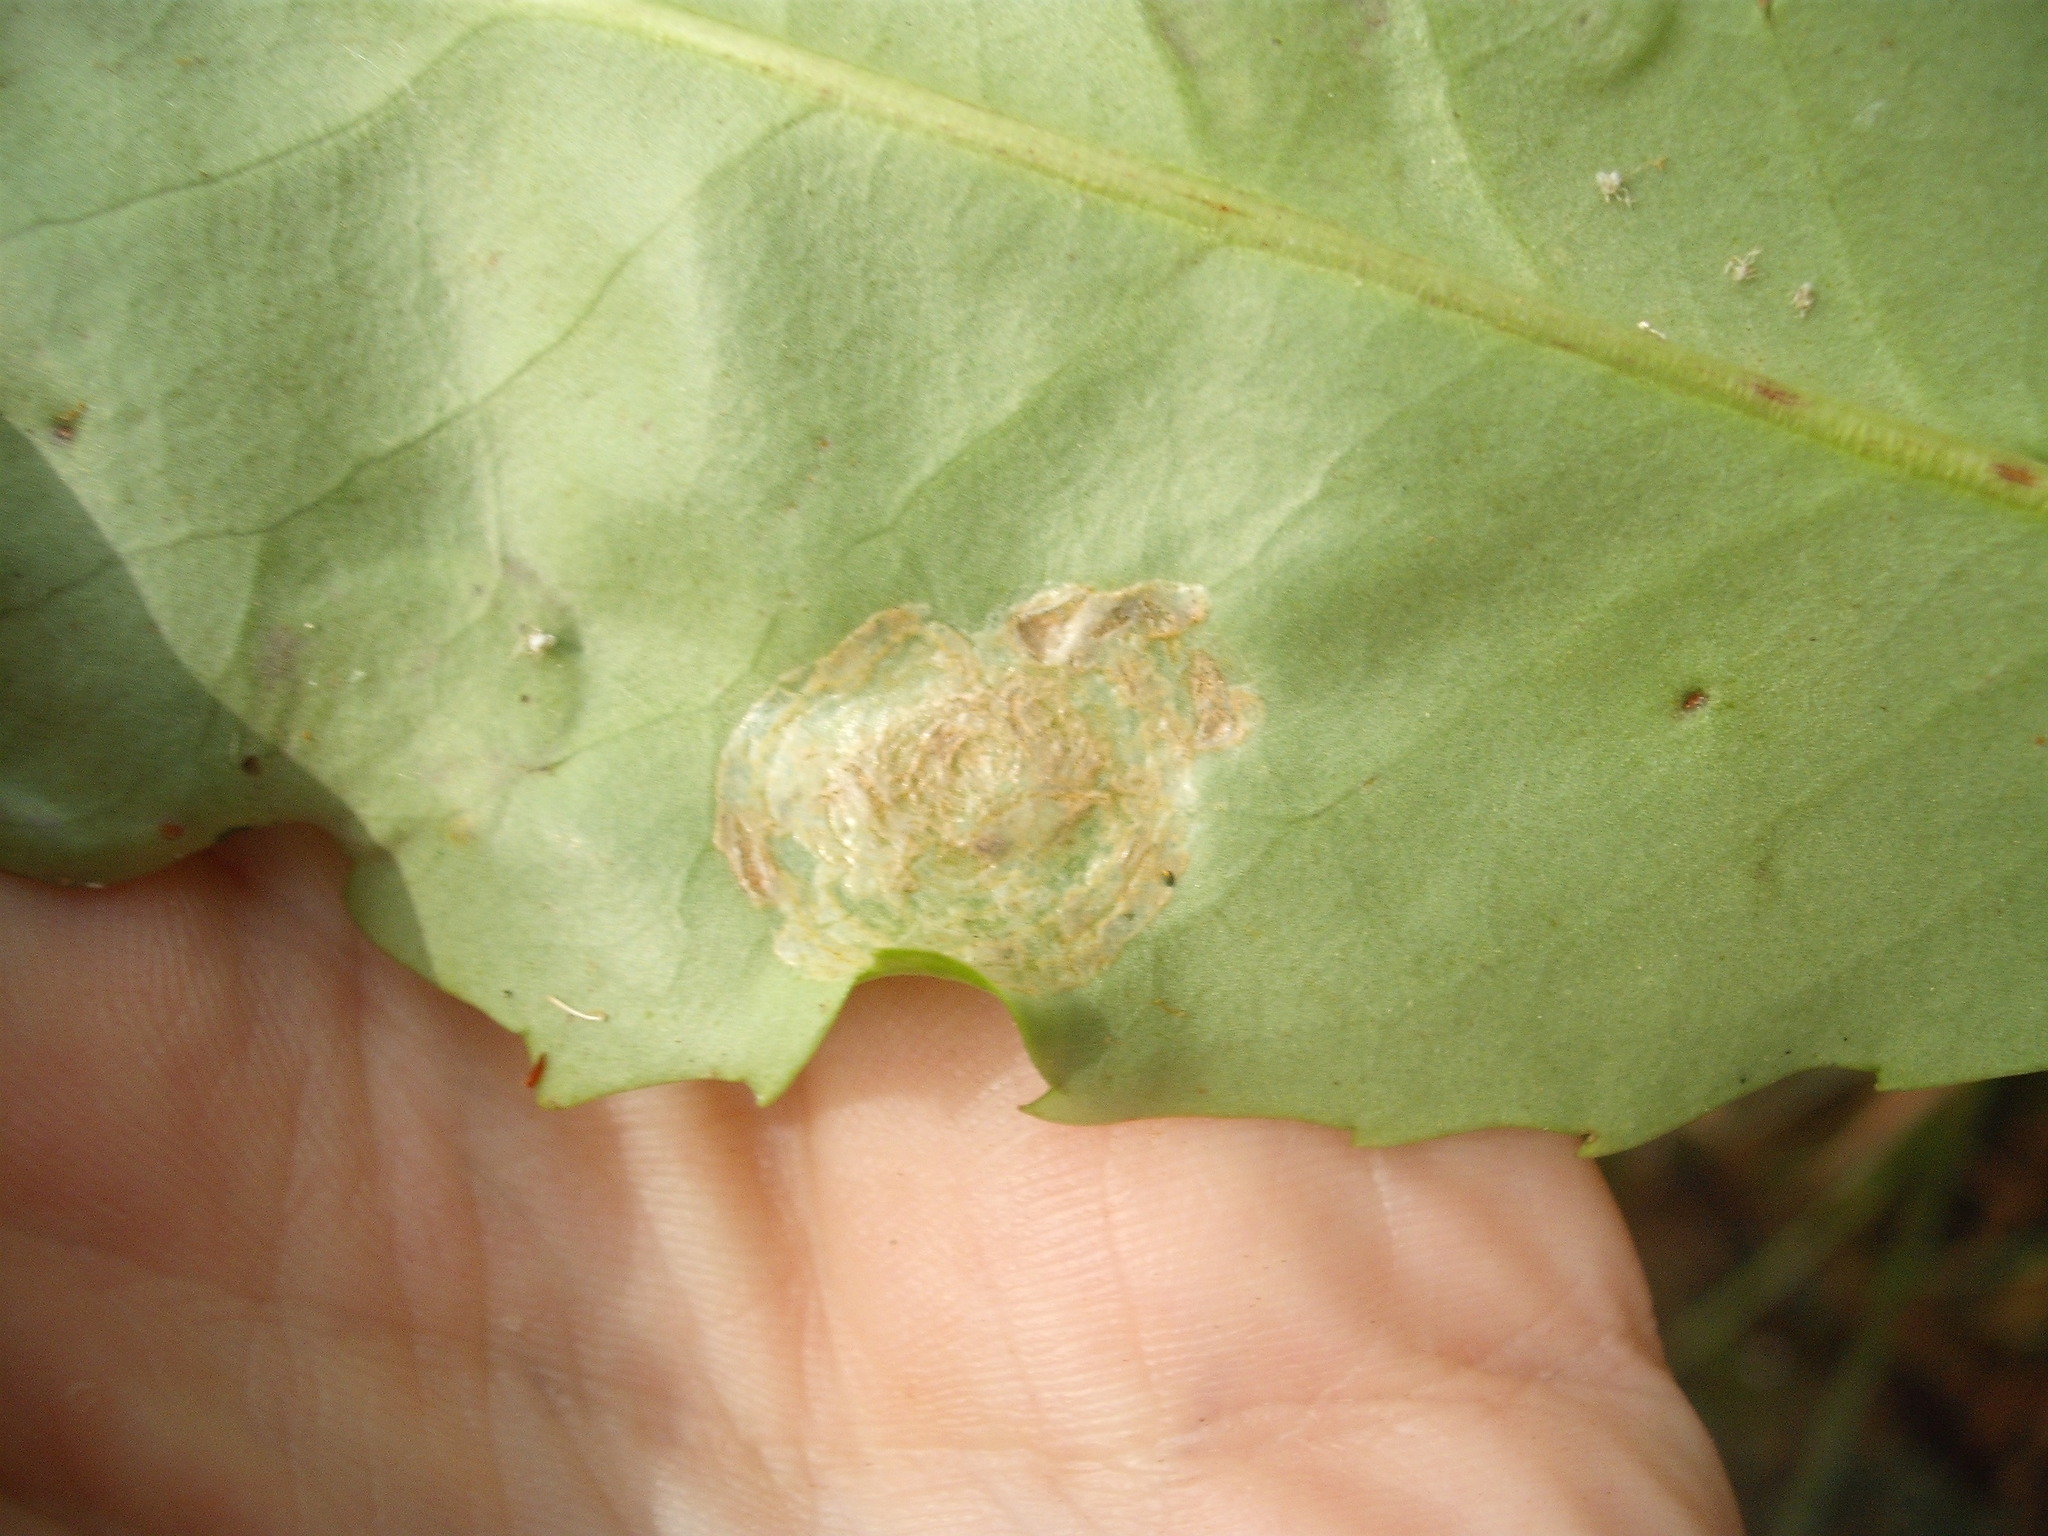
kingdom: Animalia
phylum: Arthropoda
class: Insecta
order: Lepidoptera
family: Gracillariidae
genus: Eumetriochroa
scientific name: Eumetriochroa panacitorsens
